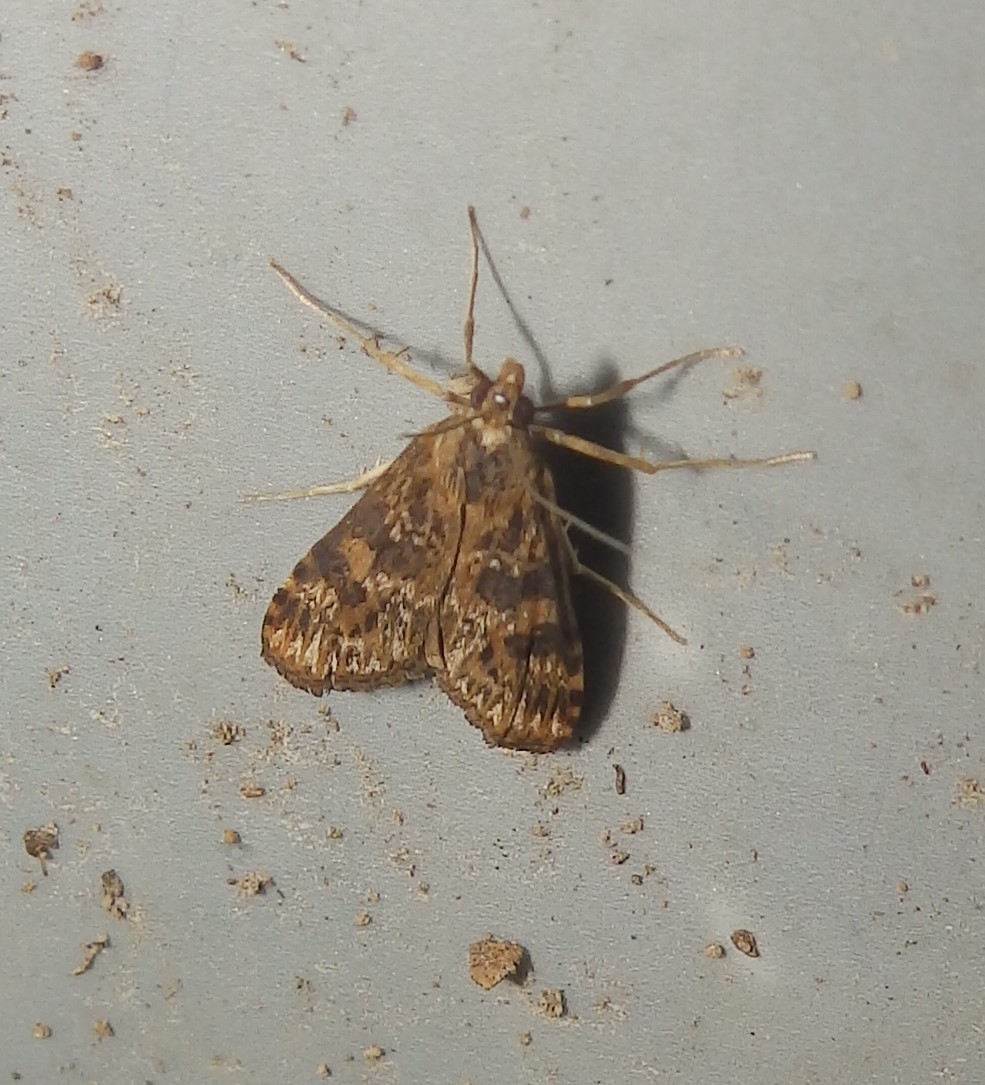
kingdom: Animalia
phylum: Arthropoda
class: Insecta
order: Lepidoptera
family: Crambidae
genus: Nomophila
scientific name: Nomophila nearctica
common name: American rush veneer
